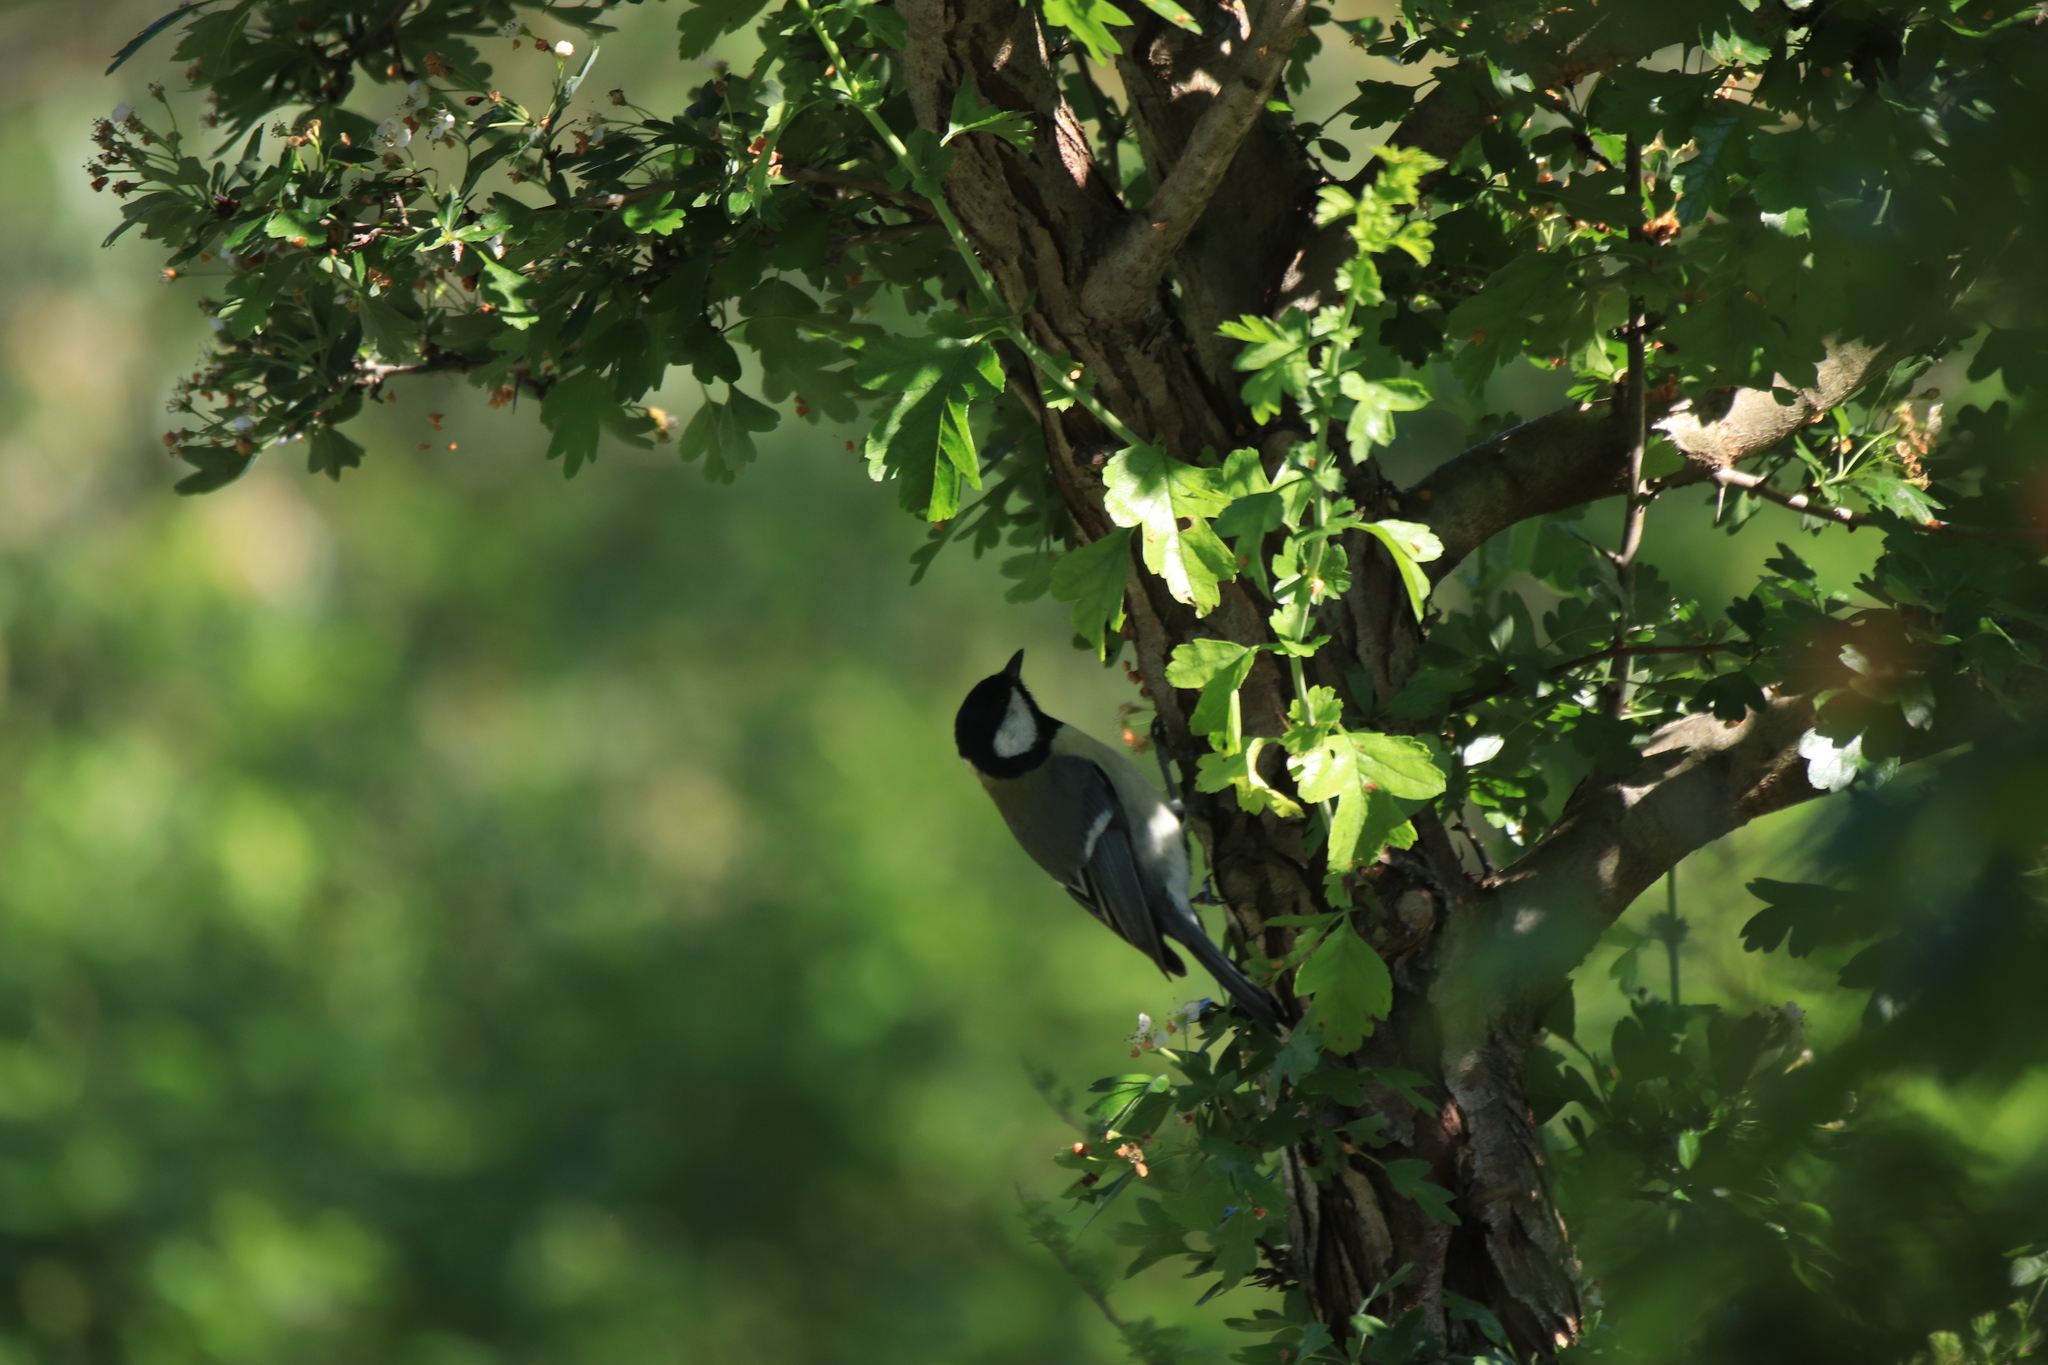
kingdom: Animalia
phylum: Chordata
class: Aves
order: Passeriformes
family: Paridae
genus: Parus
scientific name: Parus major
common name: Great tit
